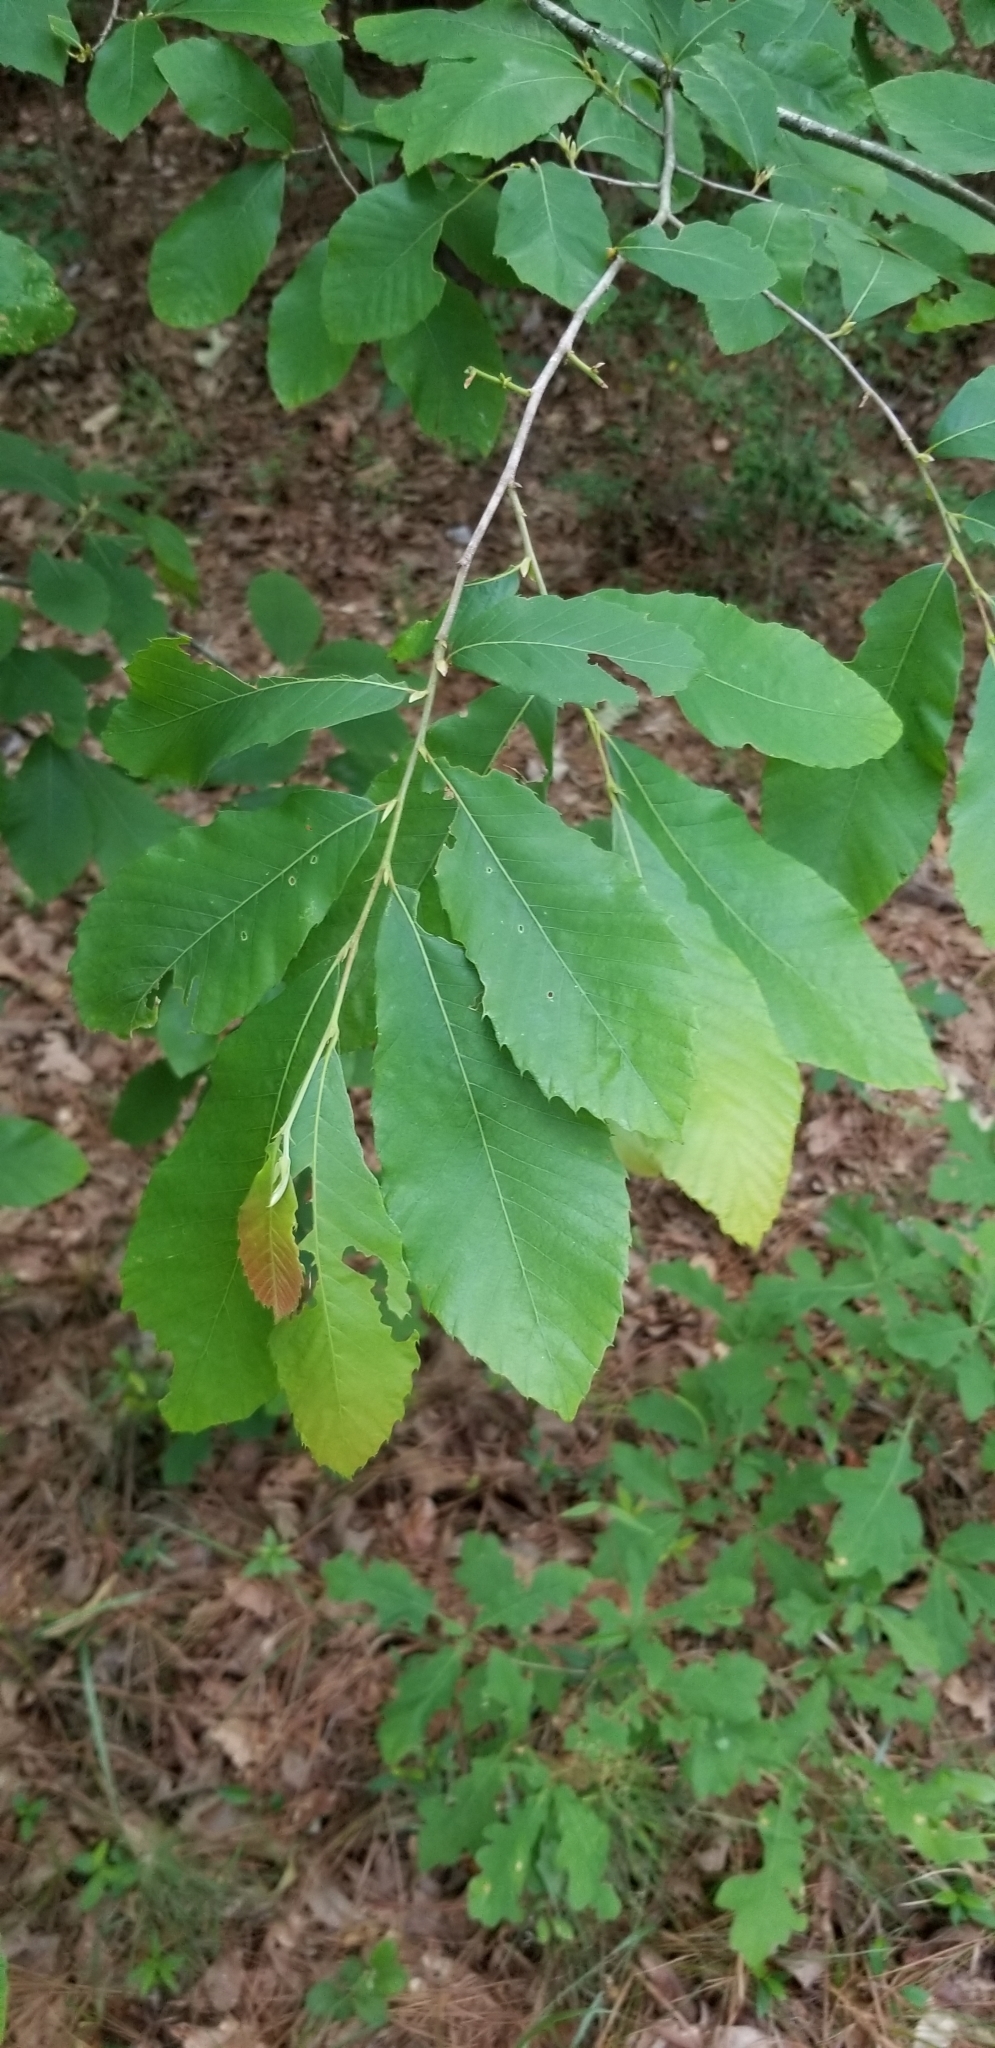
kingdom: Plantae
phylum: Tracheophyta
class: Magnoliopsida
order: Fagales
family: Fagaceae
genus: Castanea
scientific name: Castanea pumila
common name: Chinkapin
